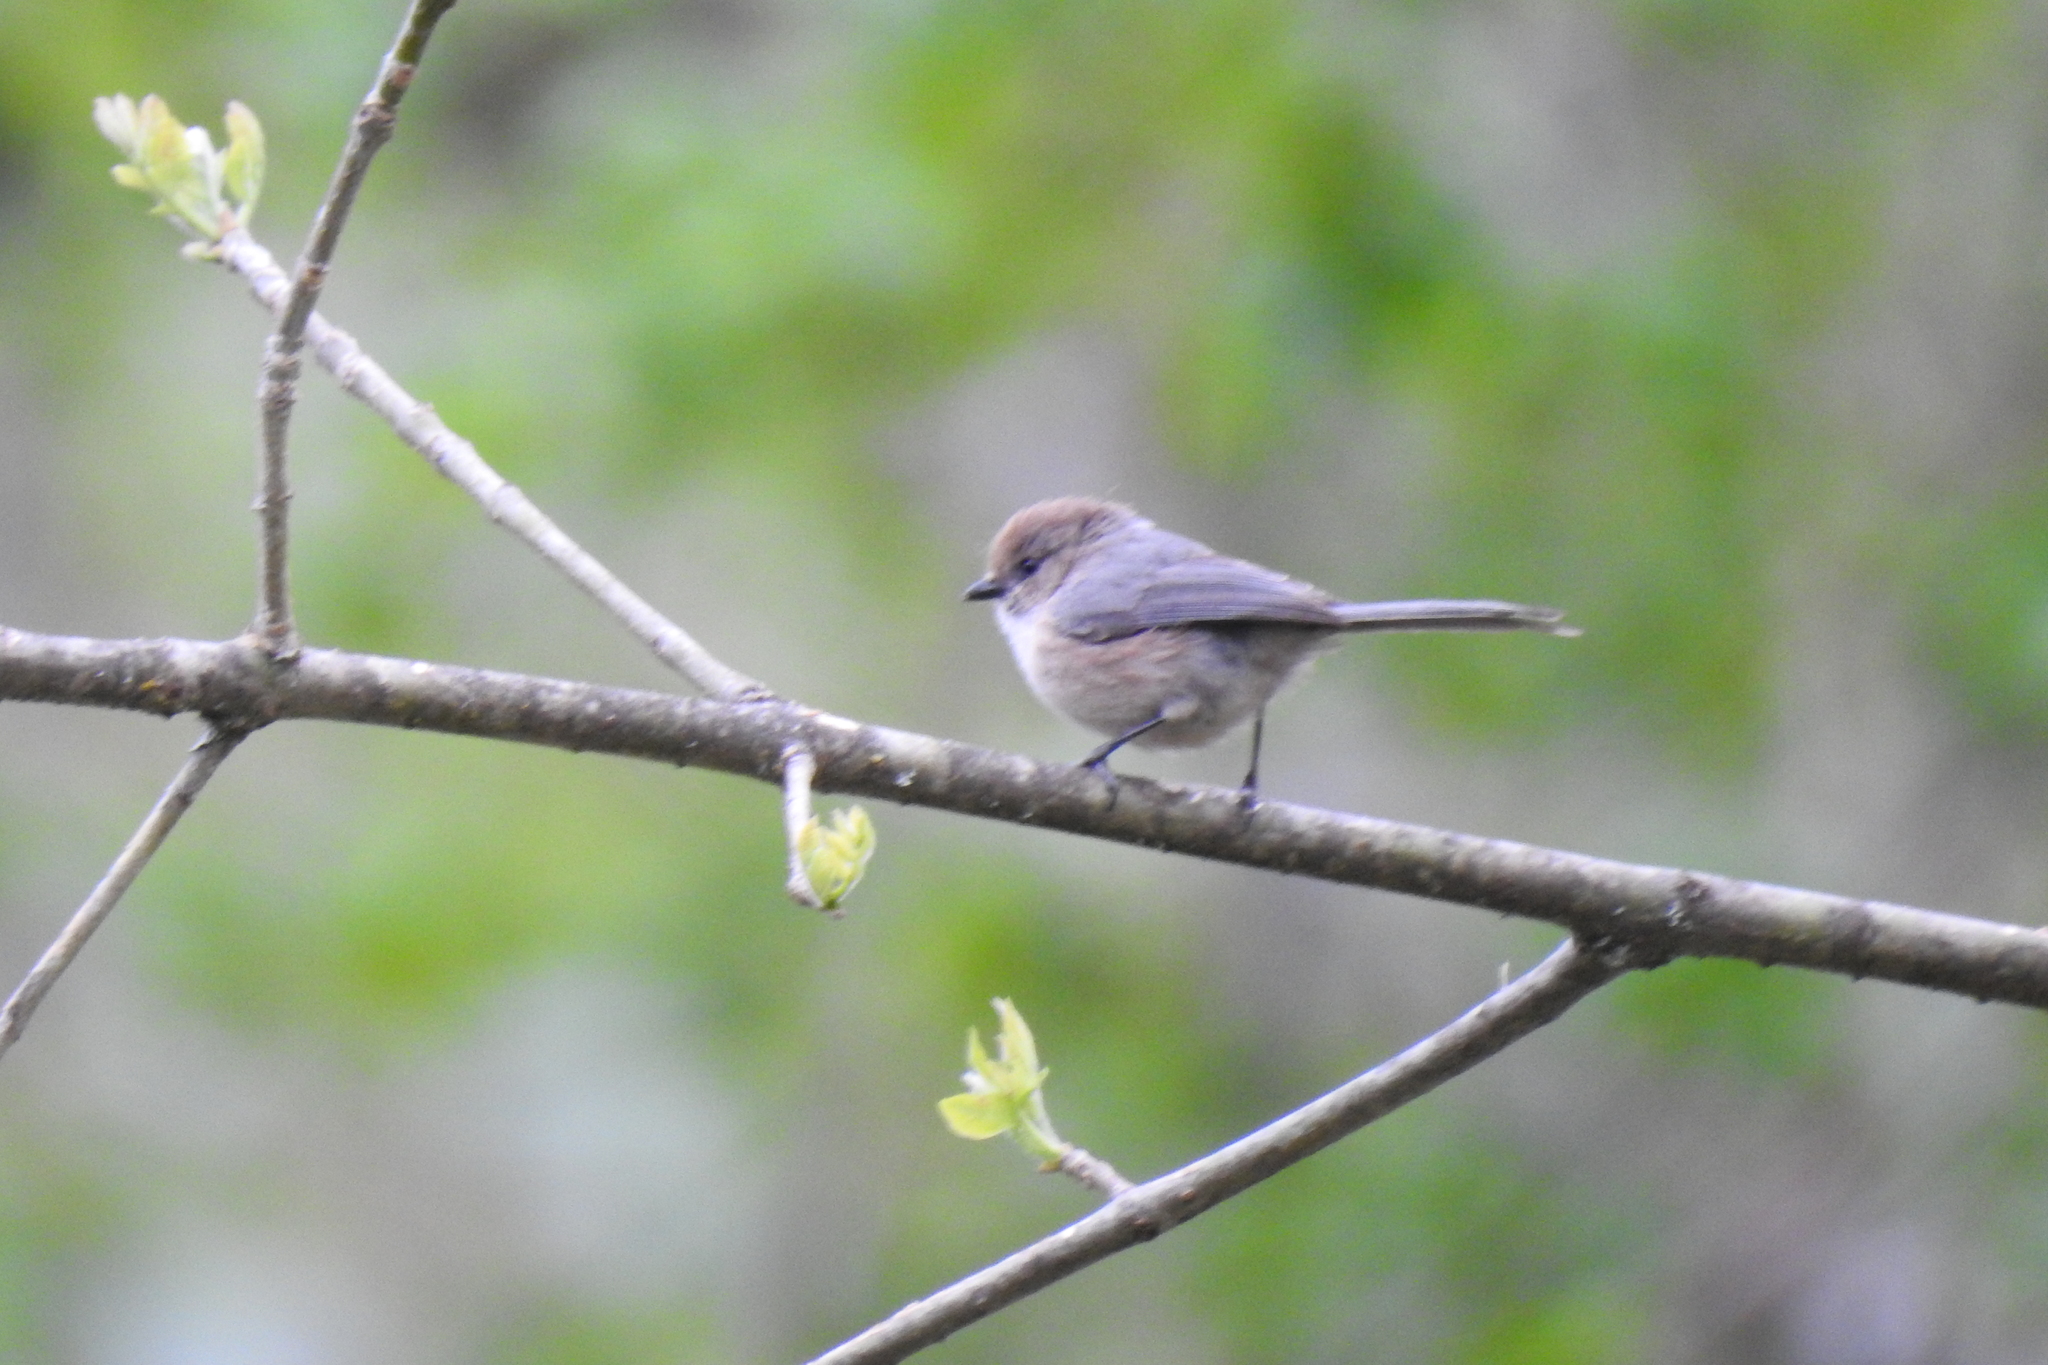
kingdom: Animalia
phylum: Chordata
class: Aves
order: Passeriformes
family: Aegithalidae
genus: Psaltriparus
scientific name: Psaltriparus minimus
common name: American bushtit
